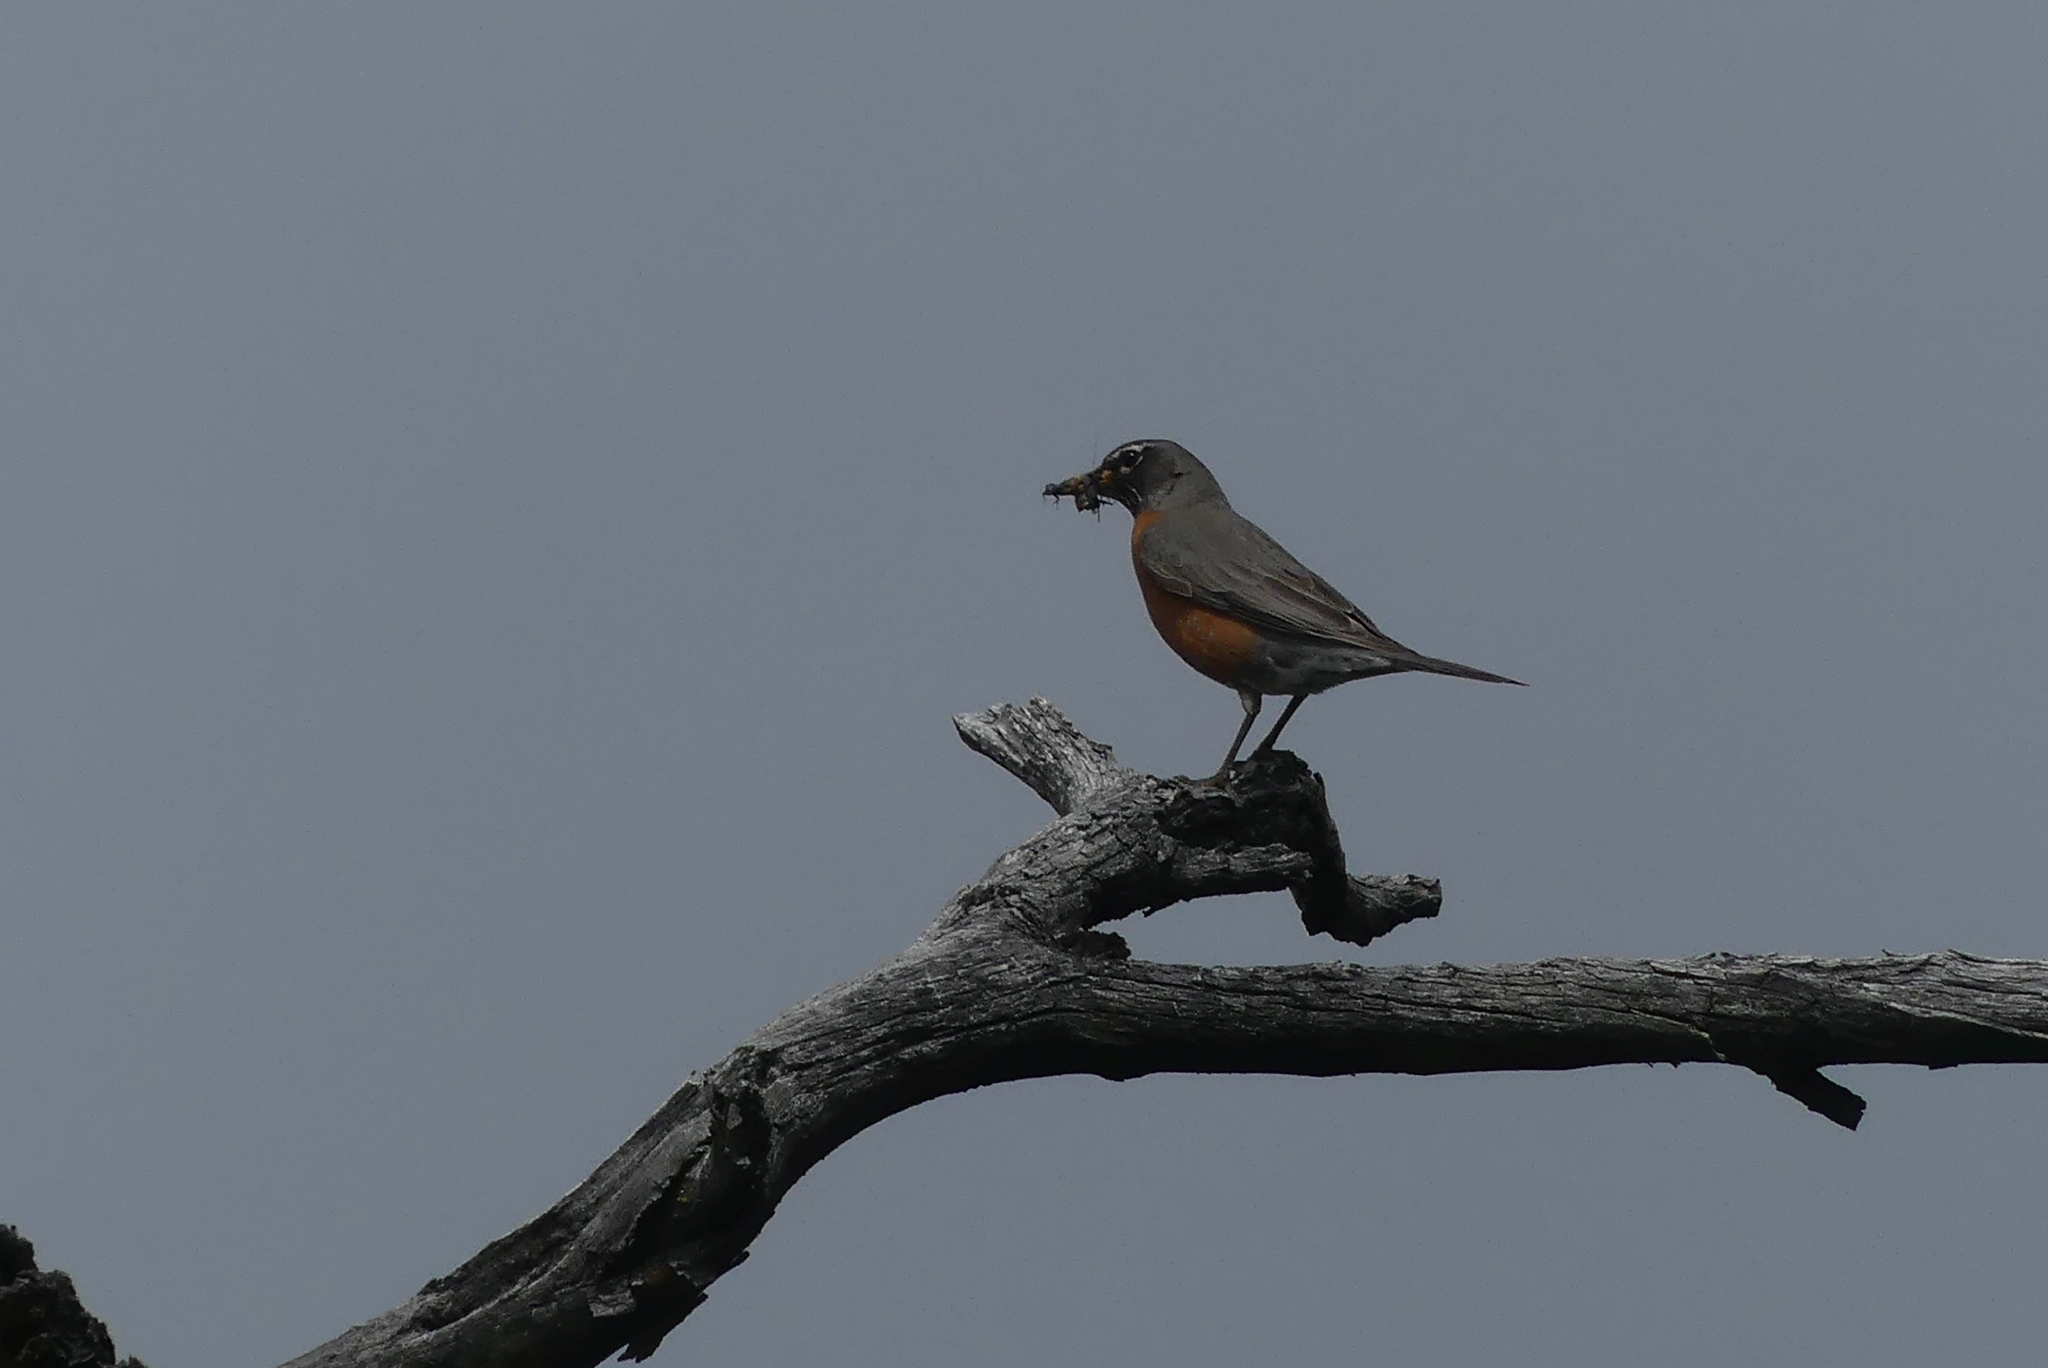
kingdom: Animalia
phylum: Chordata
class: Aves
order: Passeriformes
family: Turdidae
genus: Turdus
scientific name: Turdus migratorius
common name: American robin
